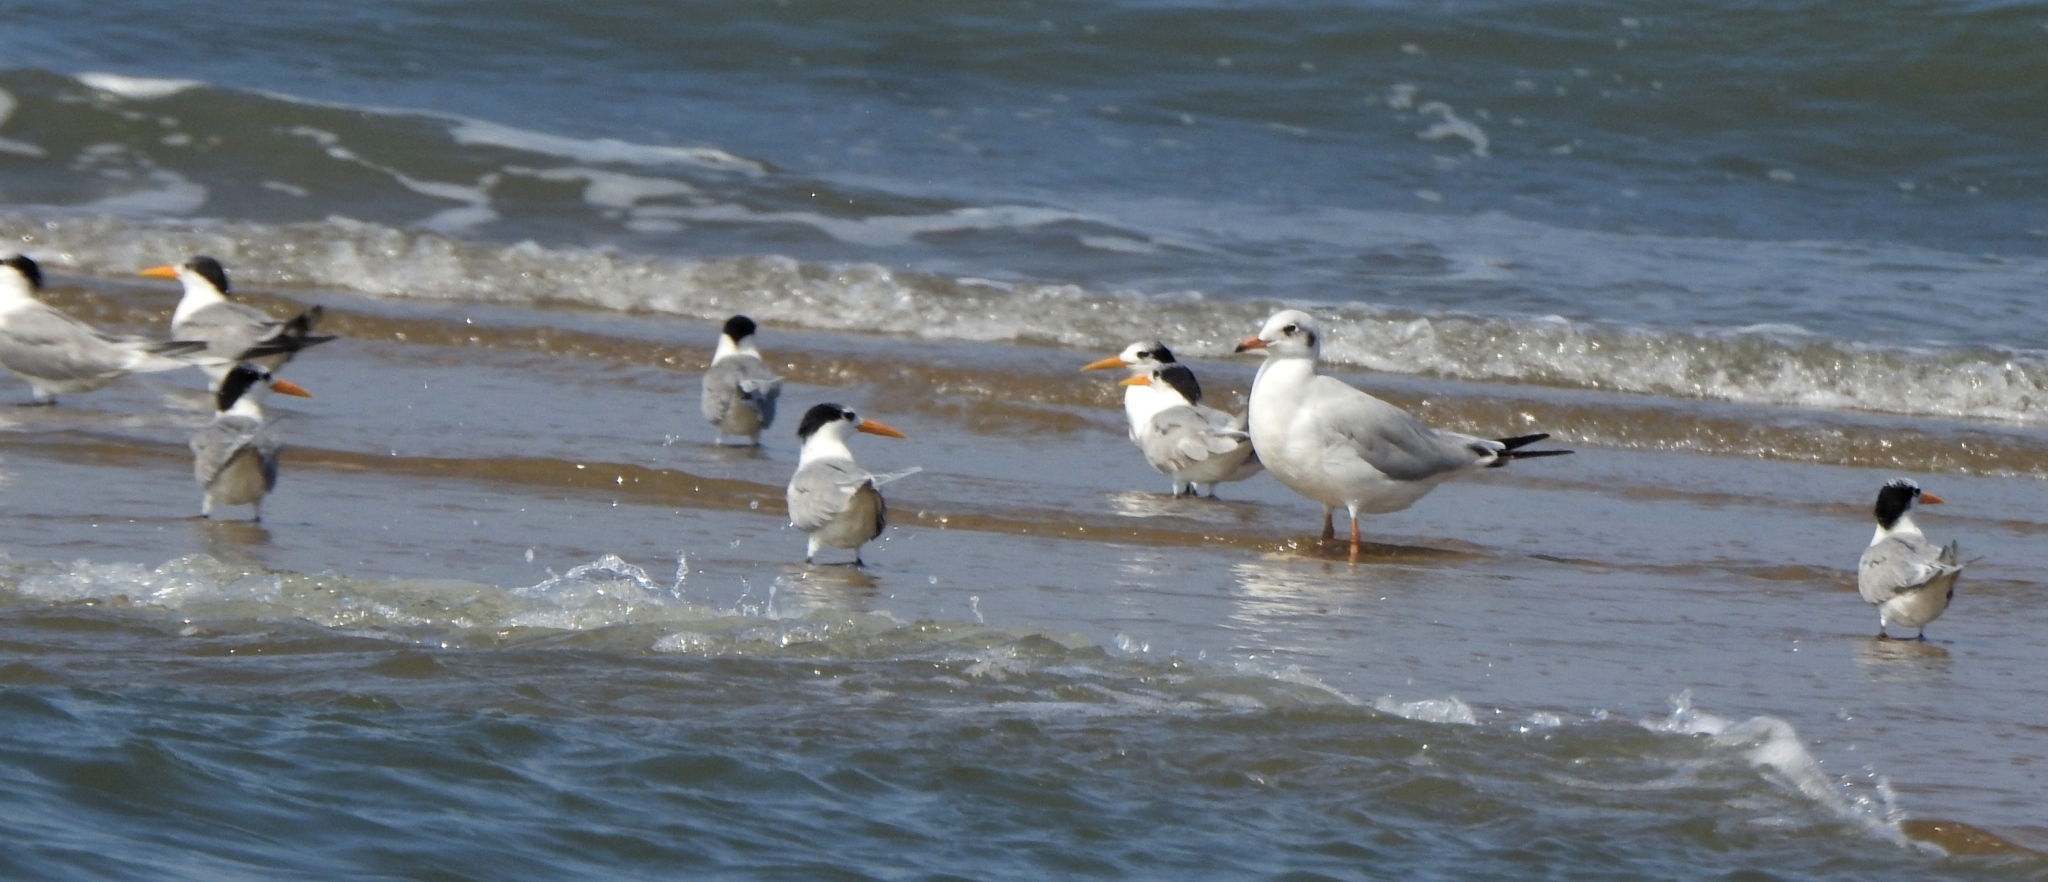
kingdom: Animalia
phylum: Chordata
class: Aves
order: Charadriiformes
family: Laridae
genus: Thalasseus
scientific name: Thalasseus bengalensis
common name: Lesser crested tern
